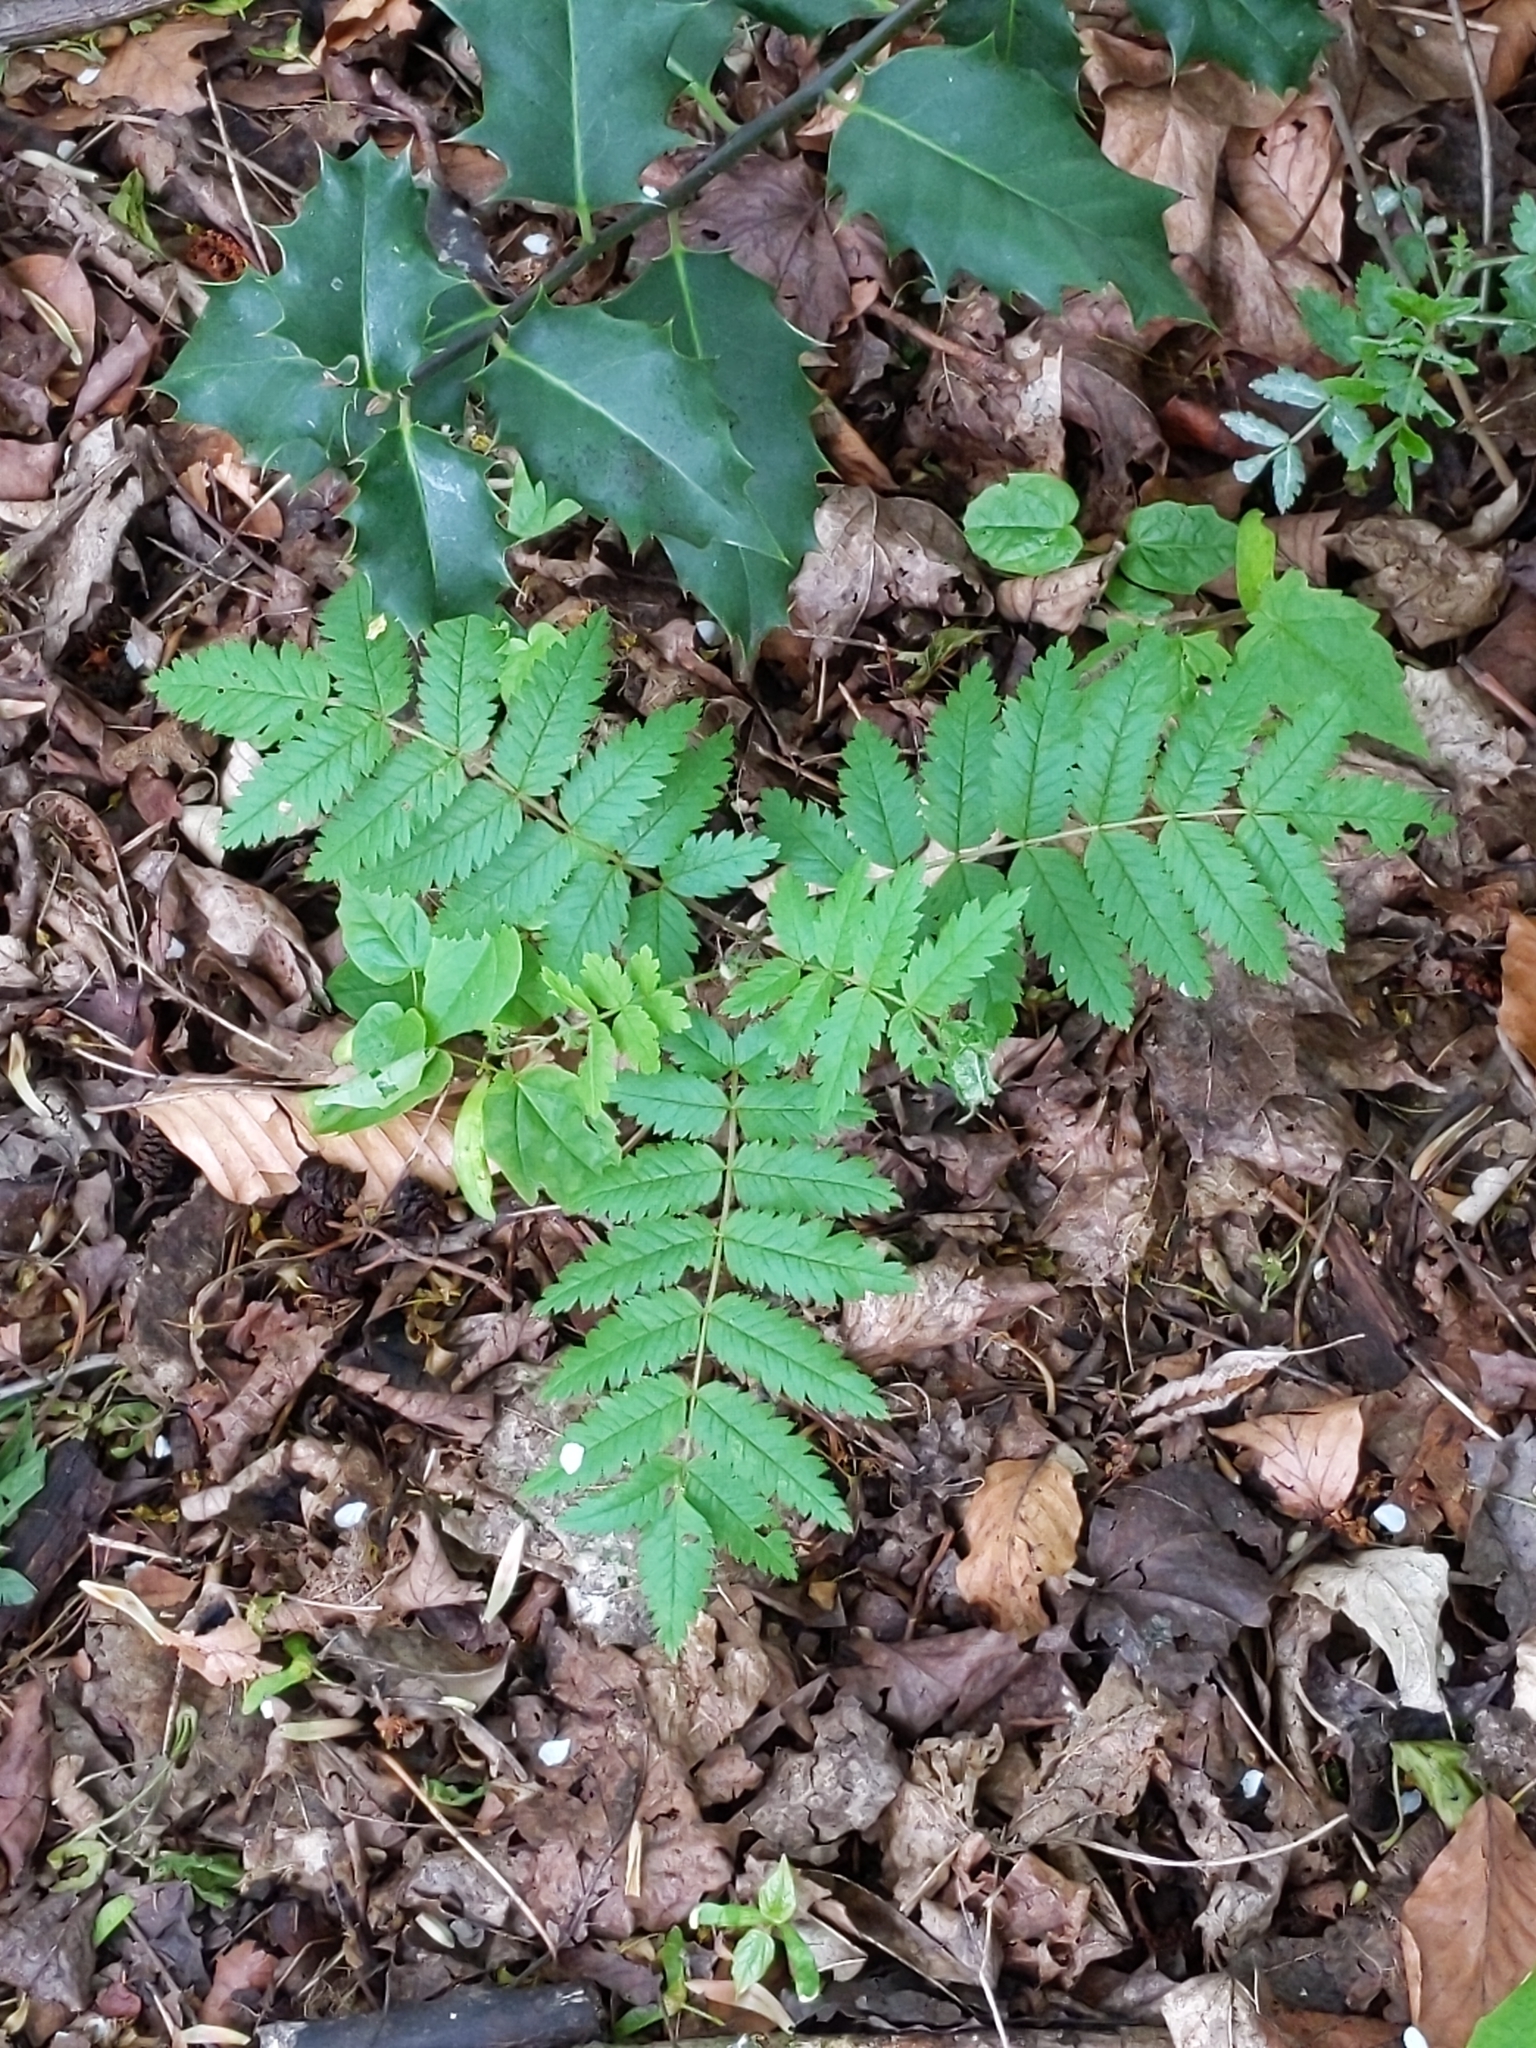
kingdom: Plantae
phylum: Tracheophyta
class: Magnoliopsida
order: Rosales
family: Rosaceae
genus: Sorbus
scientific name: Sorbus aucuparia
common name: Rowan
